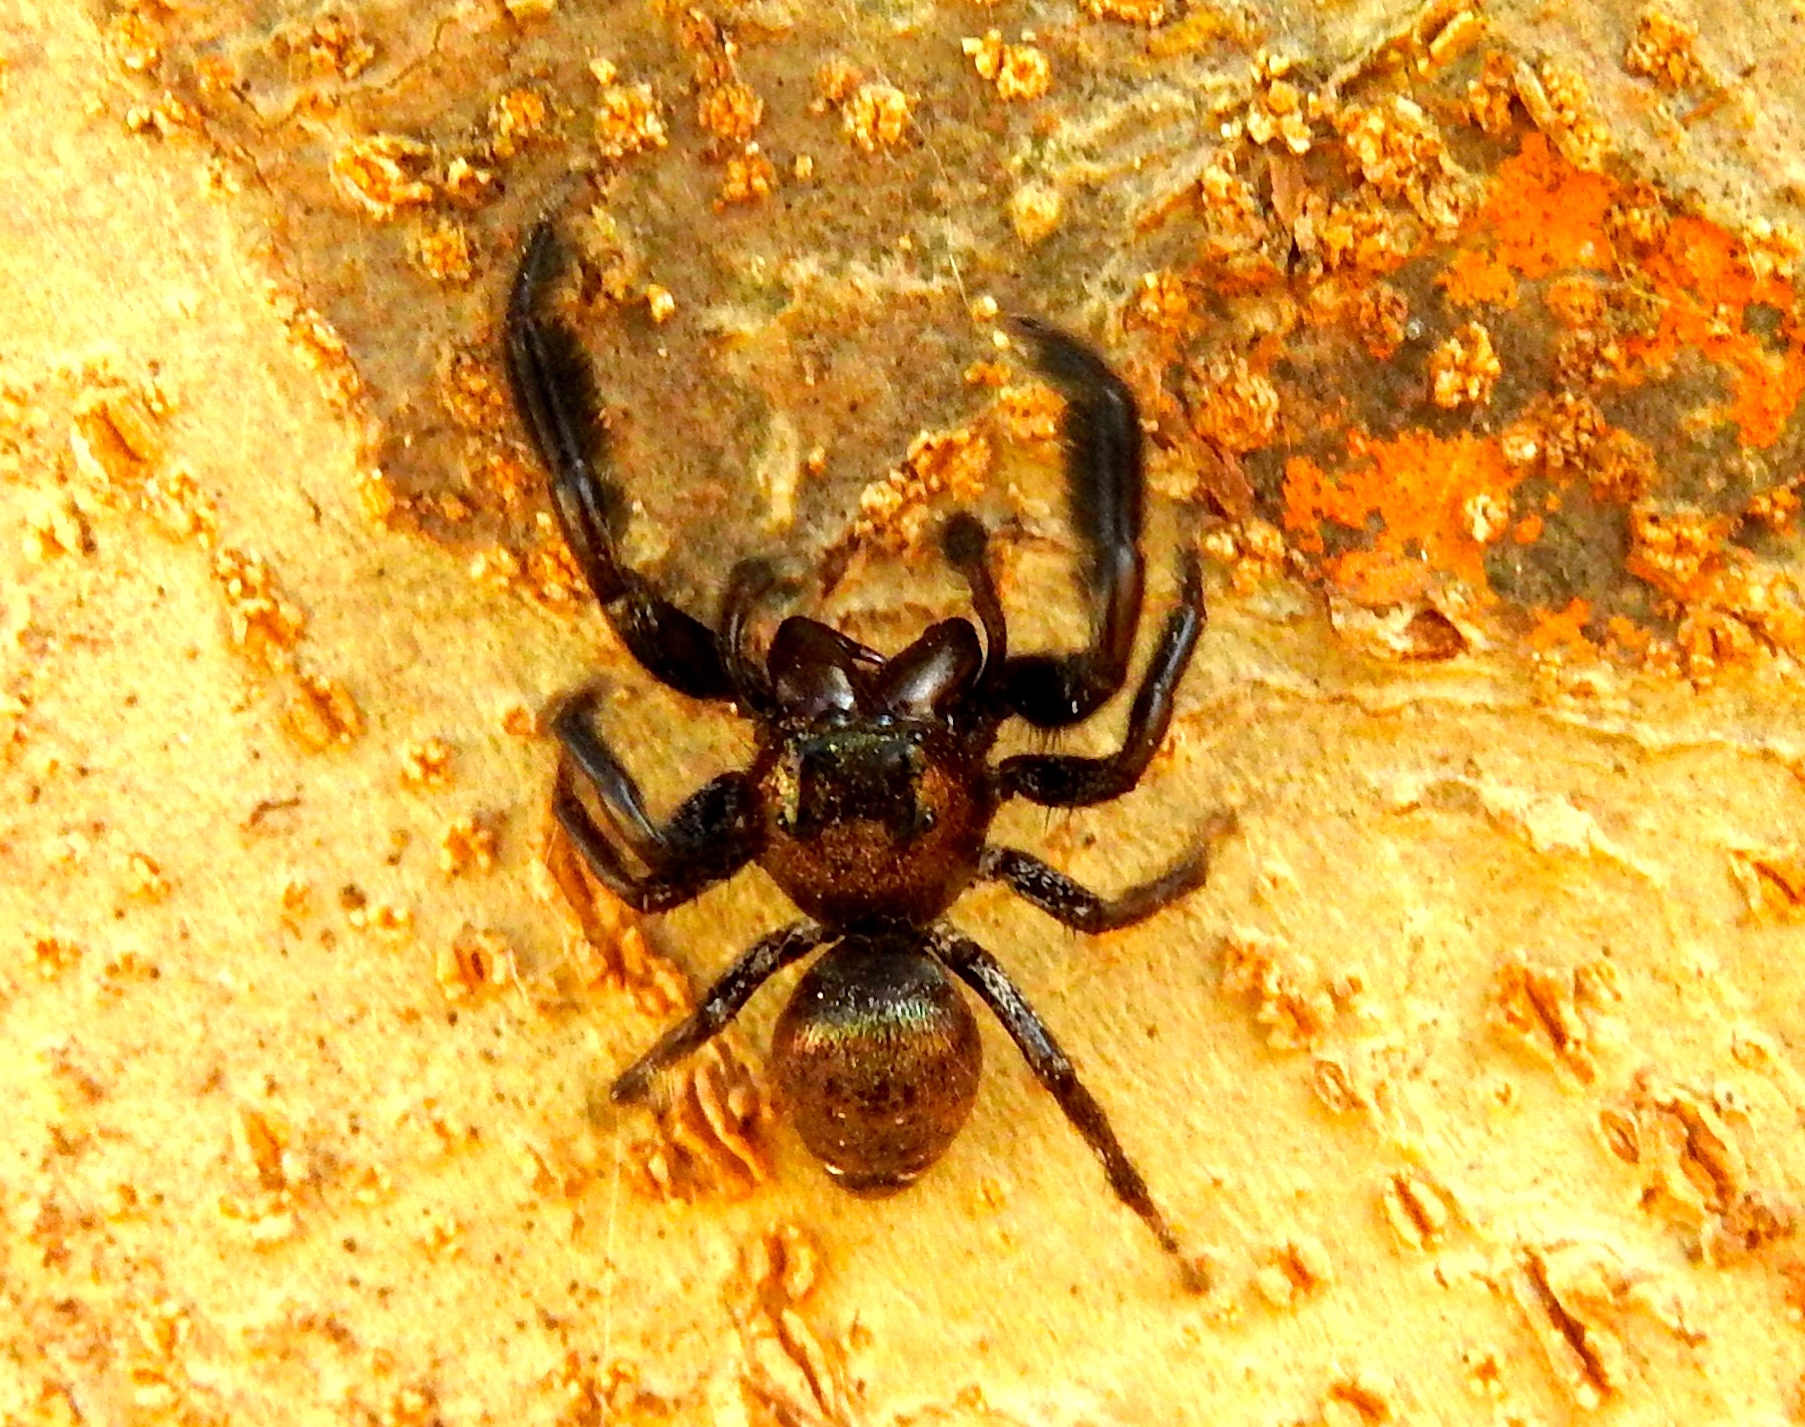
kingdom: Animalia
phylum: Arthropoda
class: Arachnida
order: Araneae
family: Salticidae
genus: Paraphidippus
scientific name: Paraphidippus fartilis
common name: Jumping spiders
